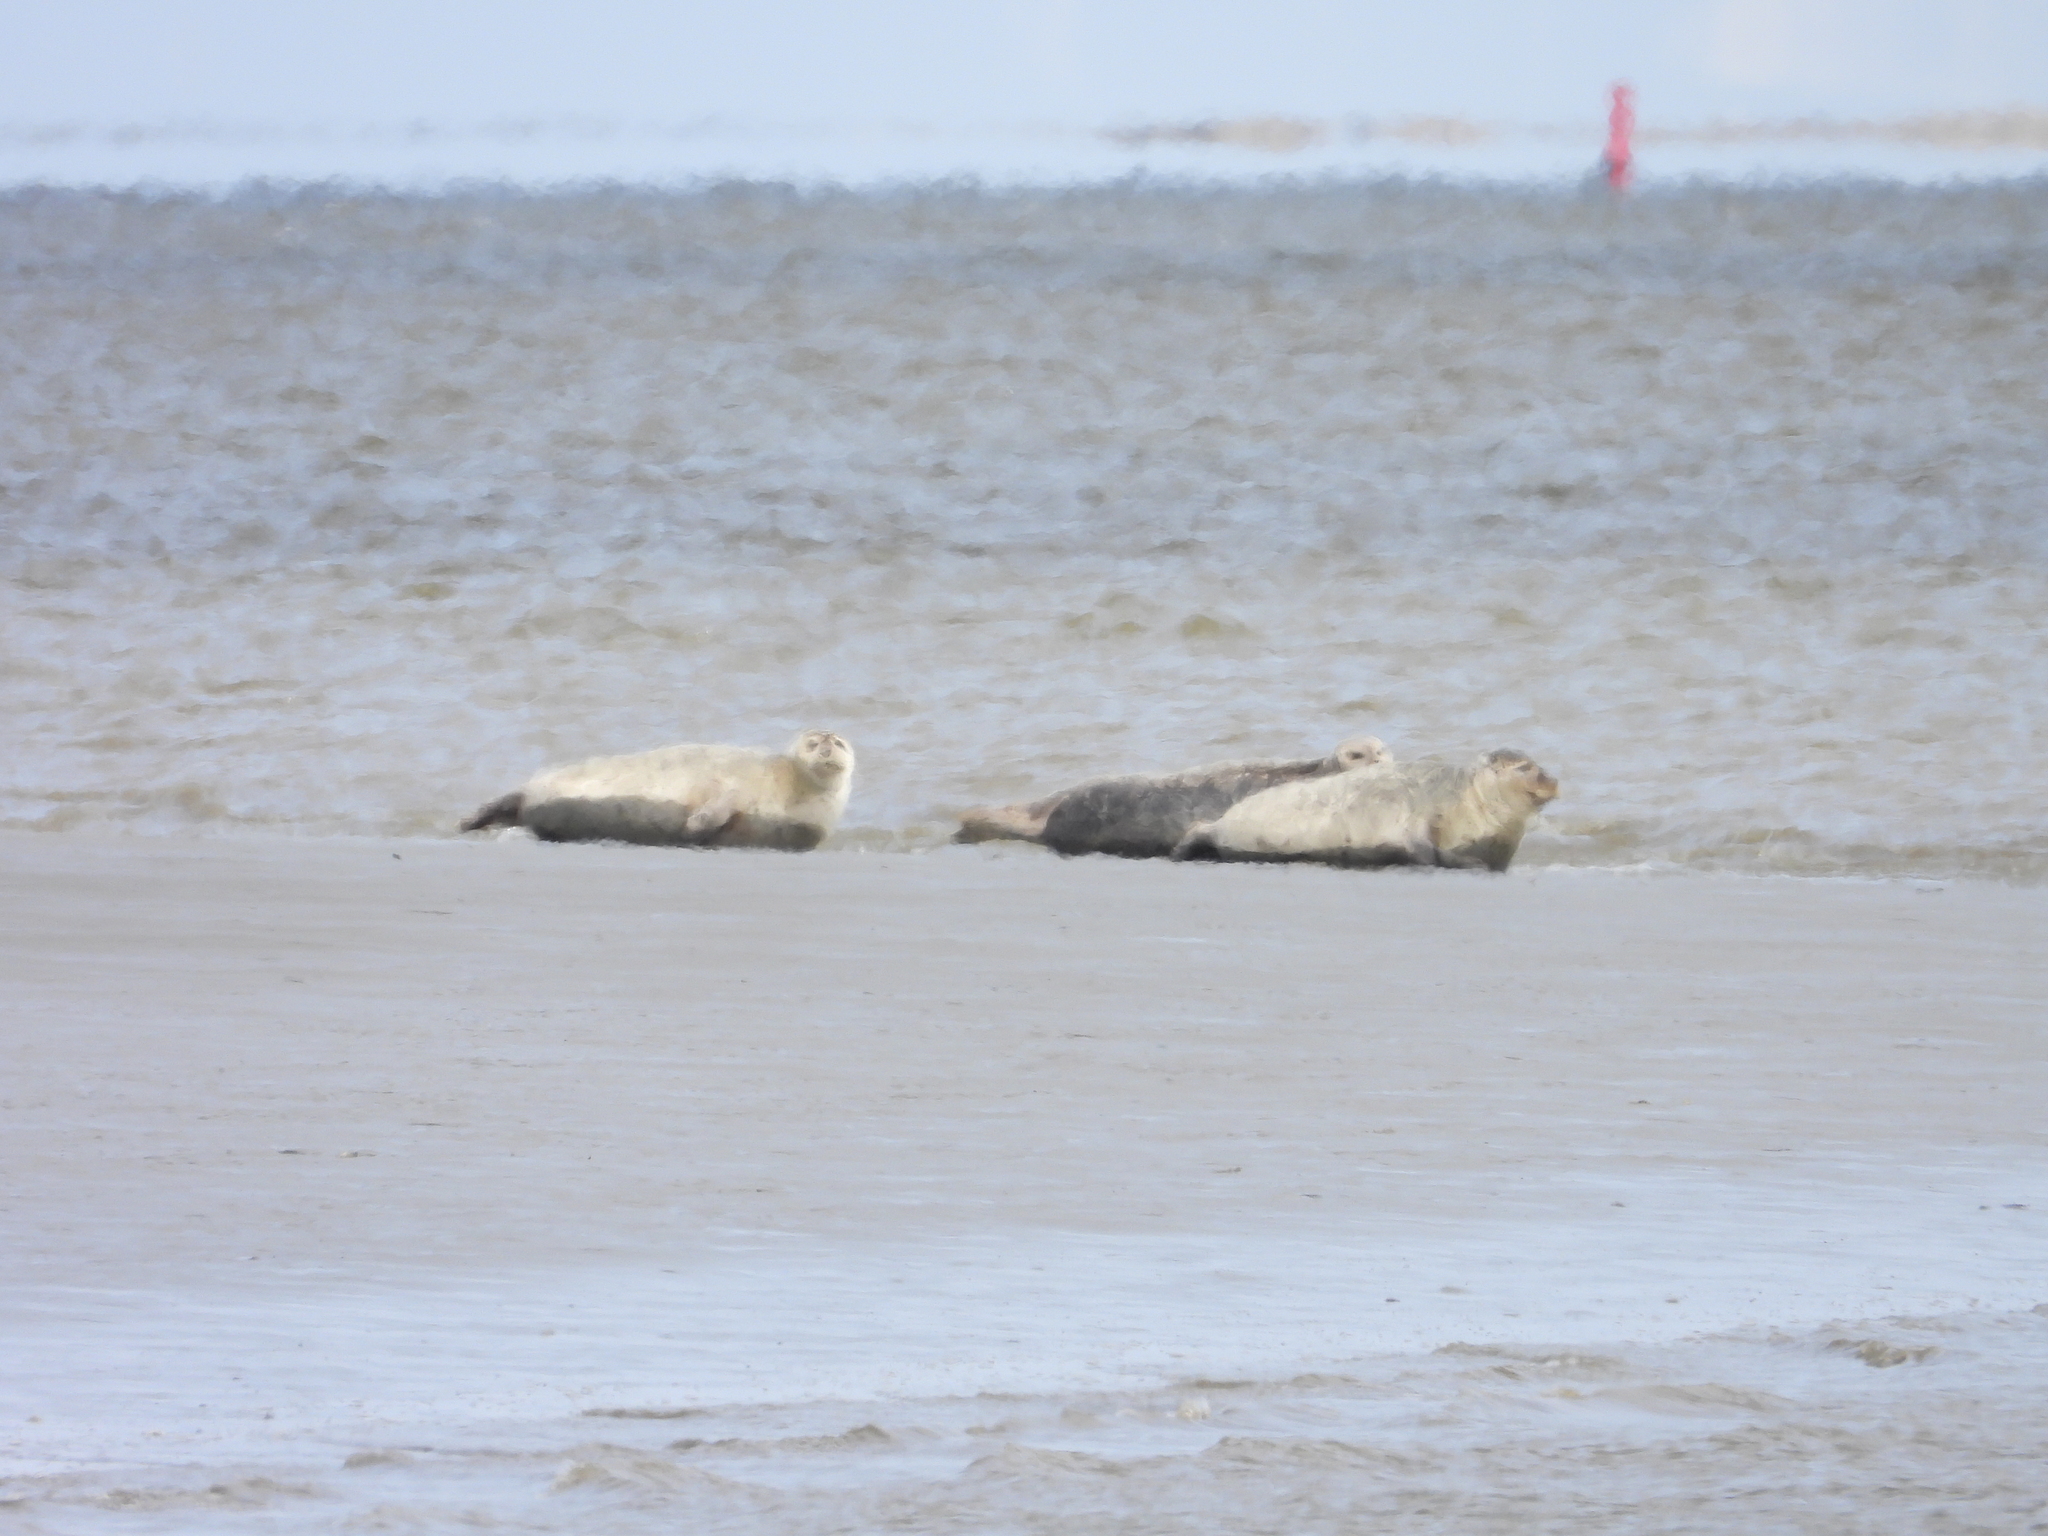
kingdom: Animalia
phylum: Chordata
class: Mammalia
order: Carnivora
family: Phocidae
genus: Phoca
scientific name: Phoca vitulina
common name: Harbor seal
